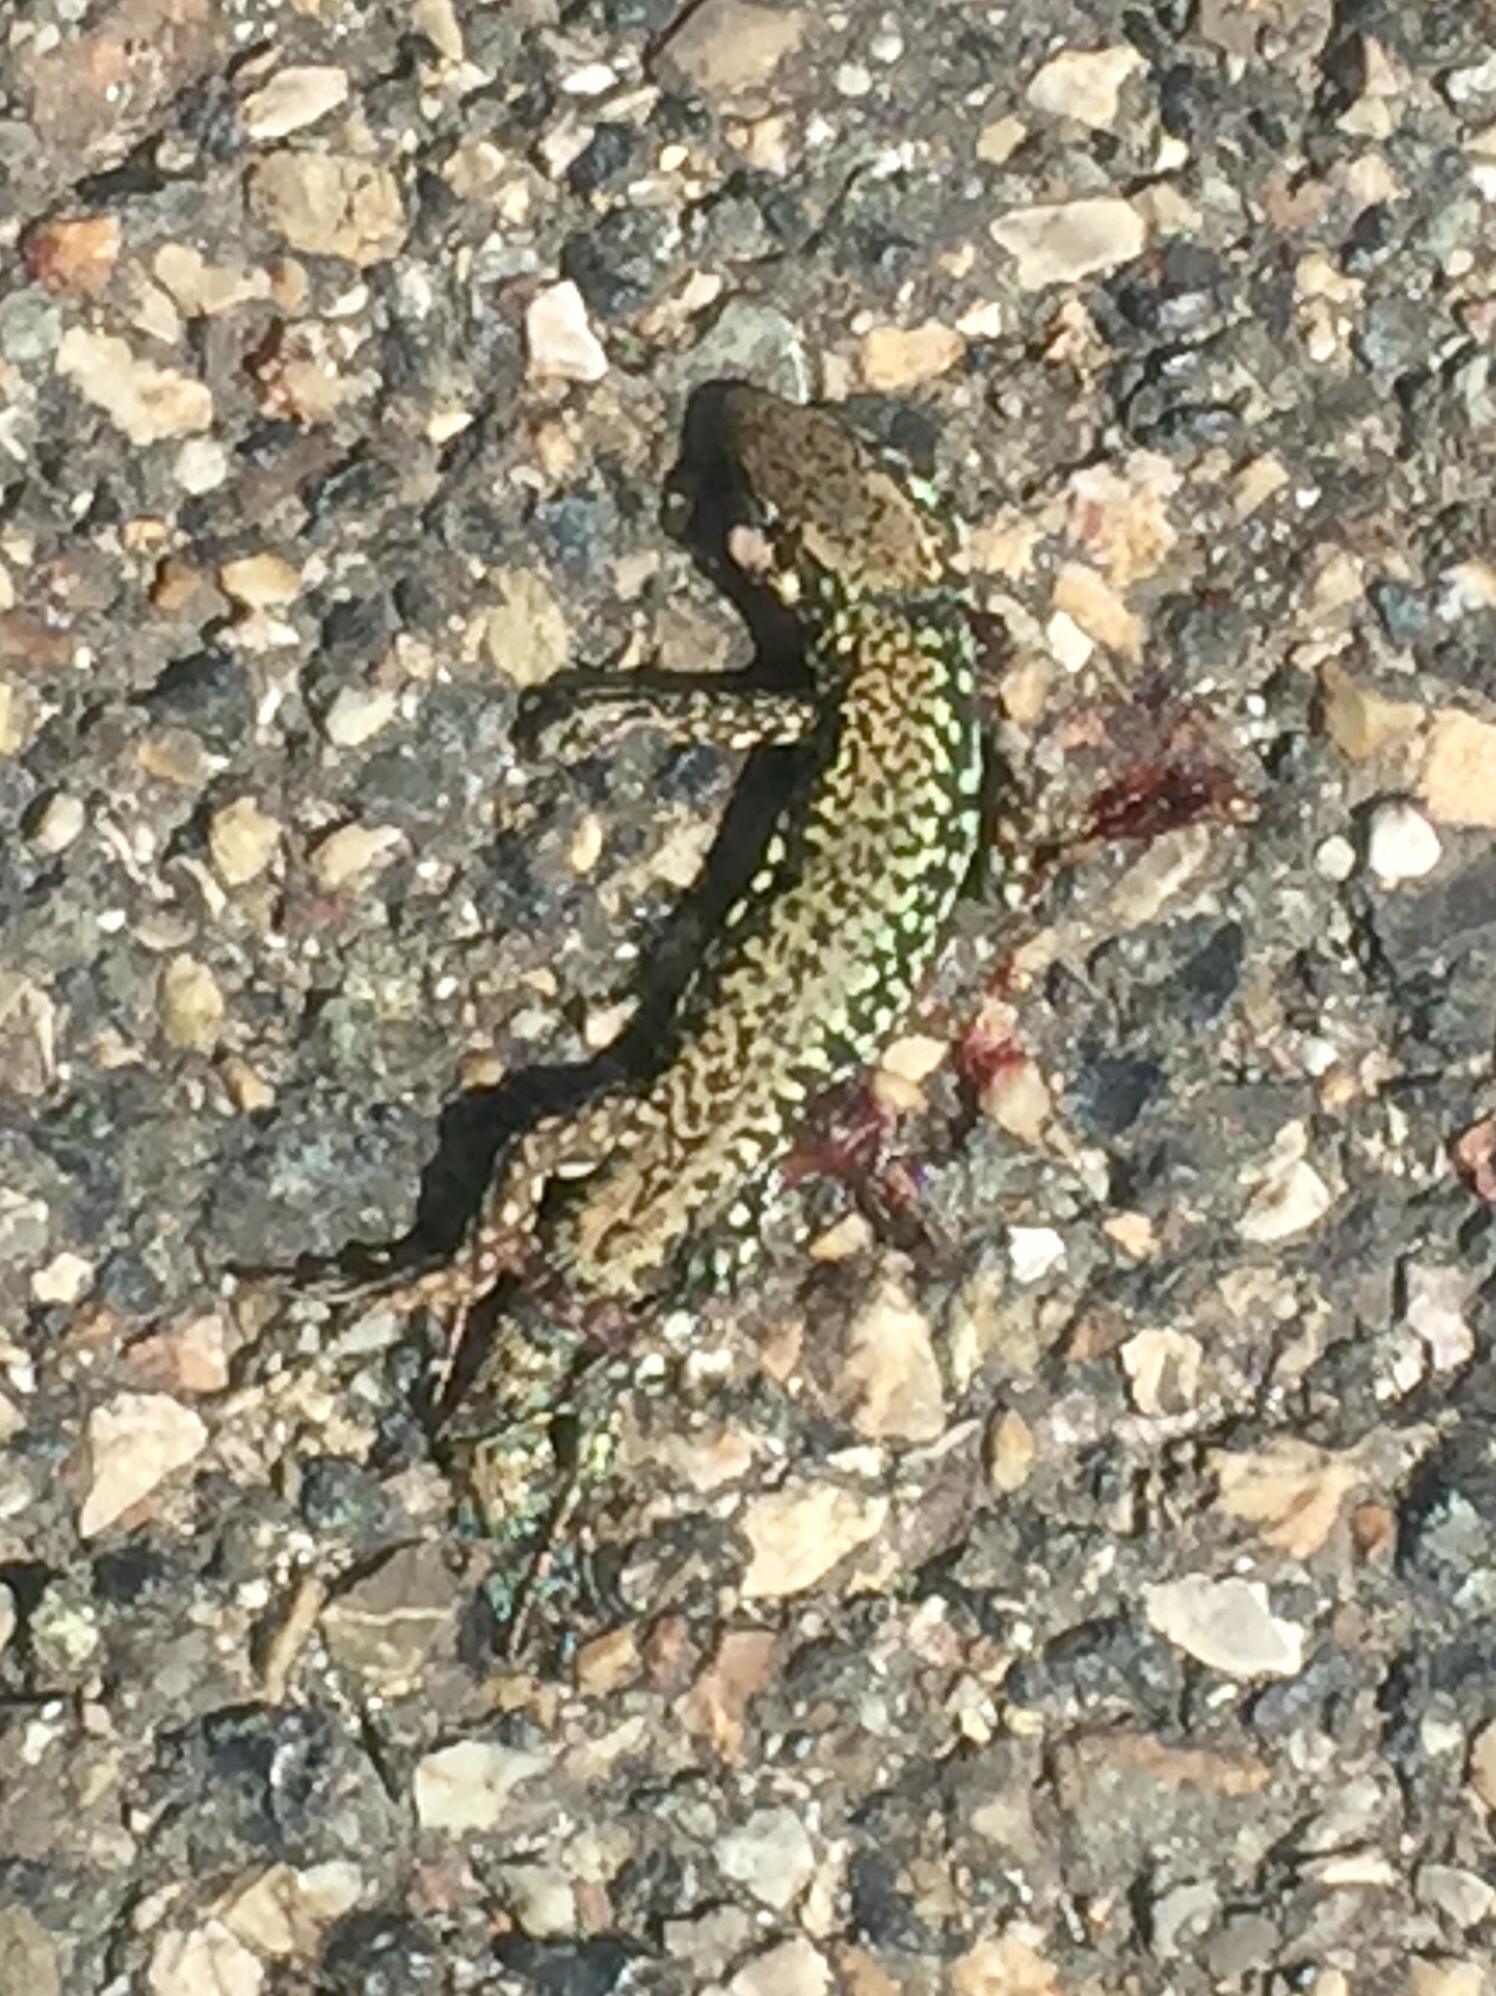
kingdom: Animalia
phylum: Chordata
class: Squamata
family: Lacertidae
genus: Podarcis
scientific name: Podarcis muralis
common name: Common wall lizard
